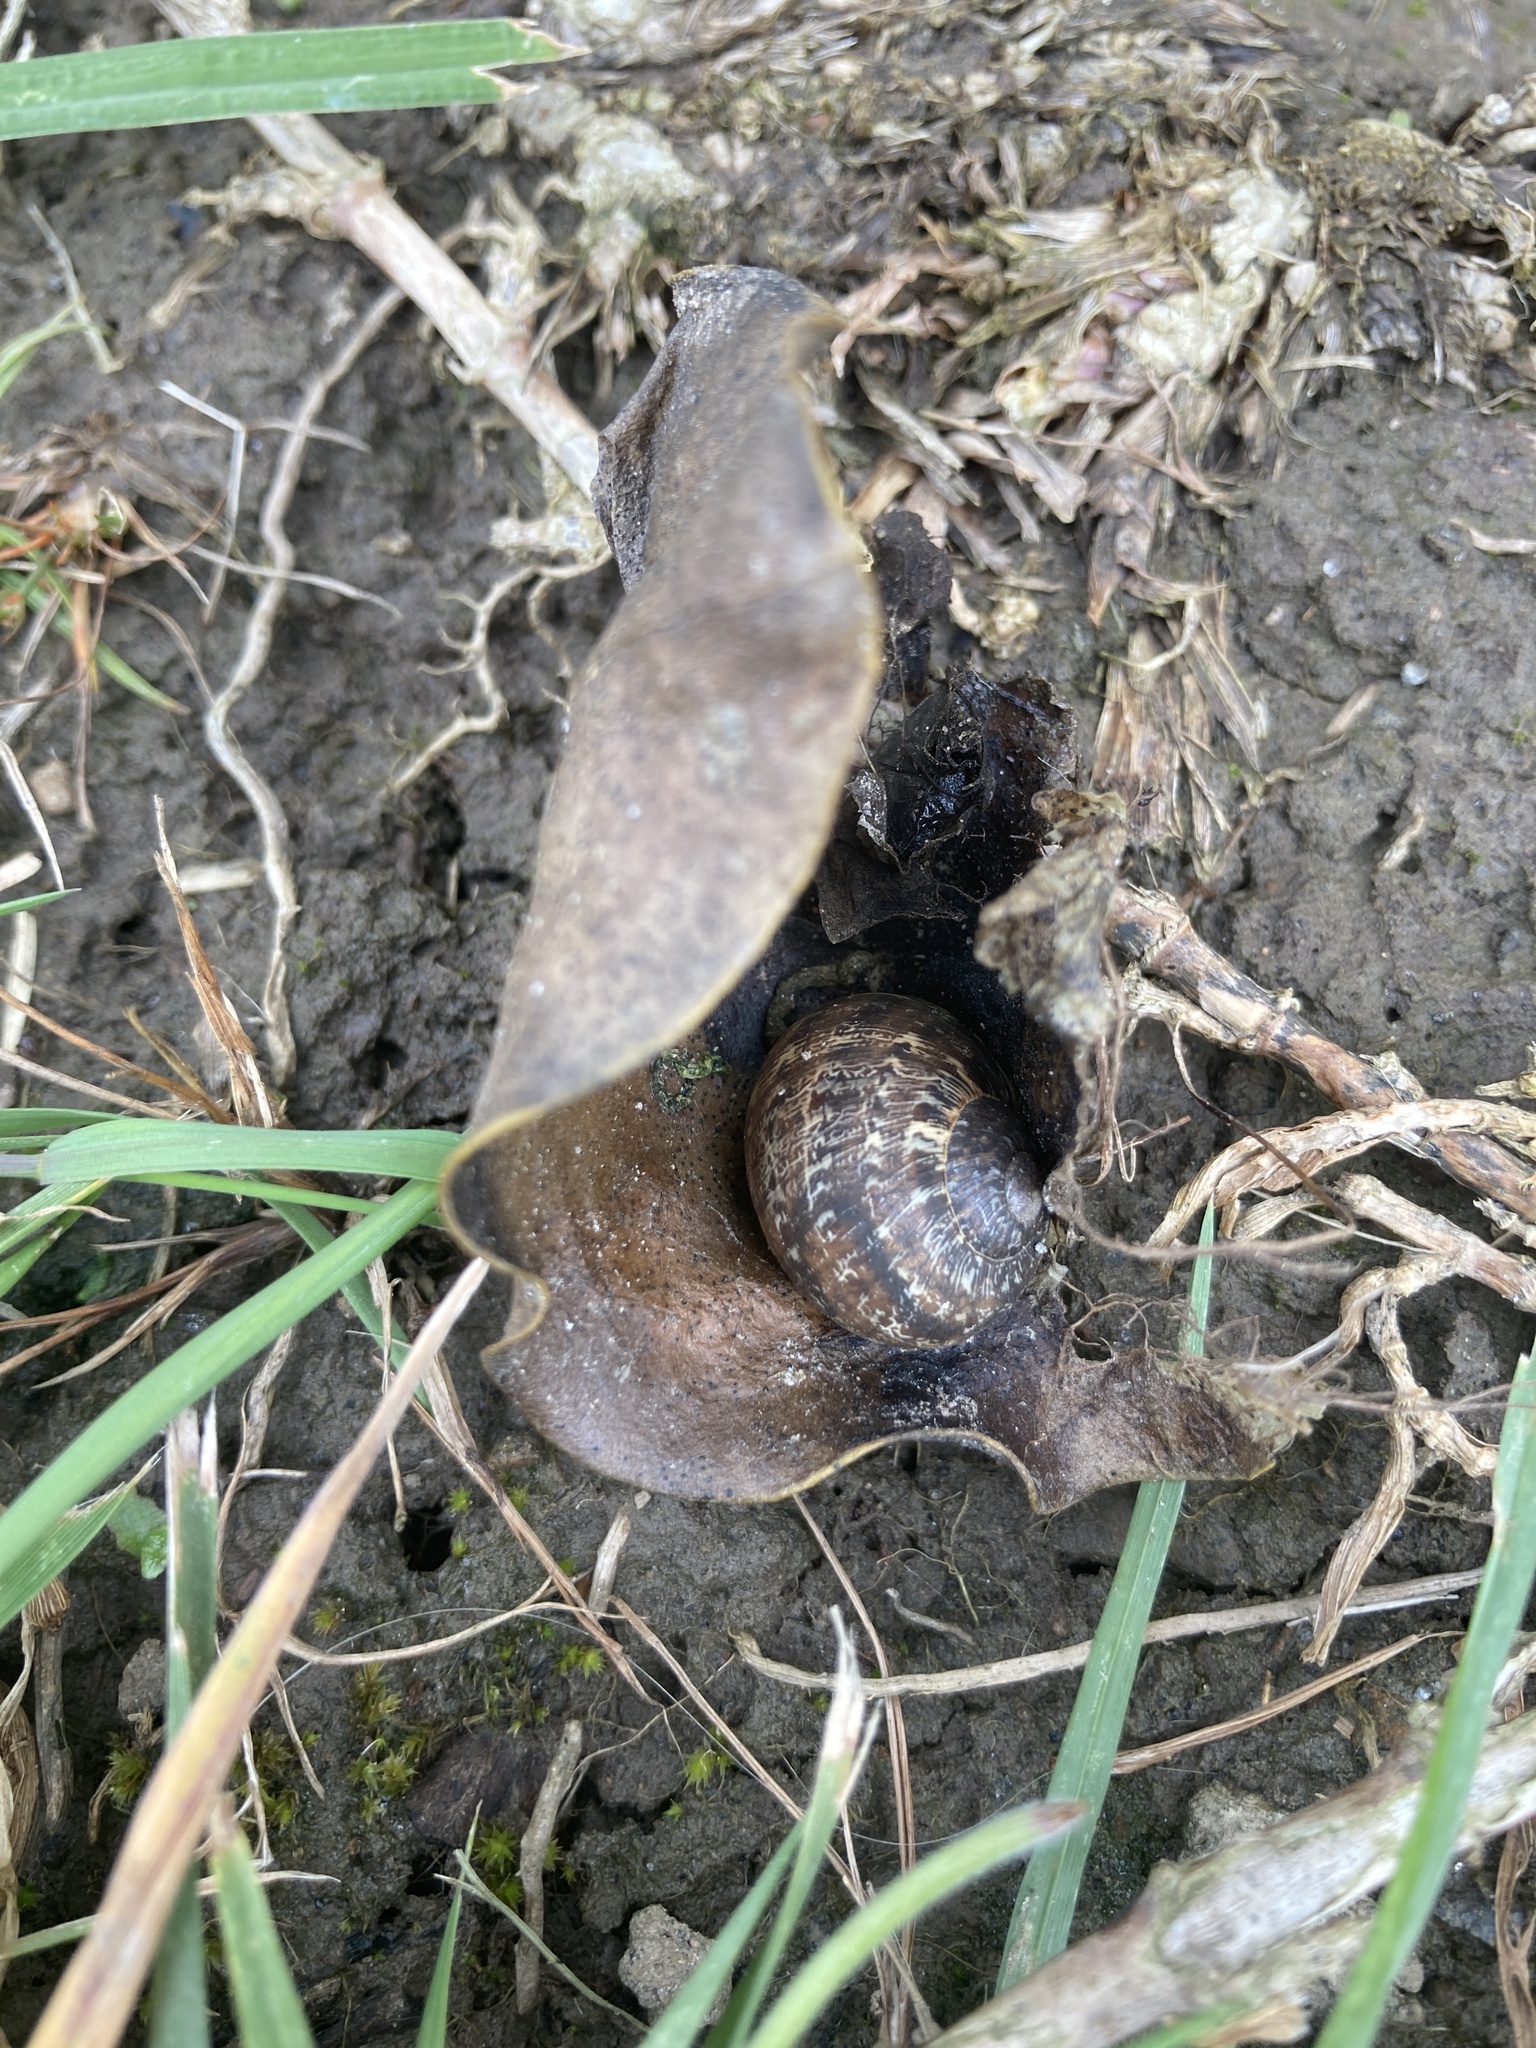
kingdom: Animalia
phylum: Mollusca
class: Gastropoda
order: Stylommatophora
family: Helicidae
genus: Cornu
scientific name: Cornu aspersum
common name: Brown garden snail
